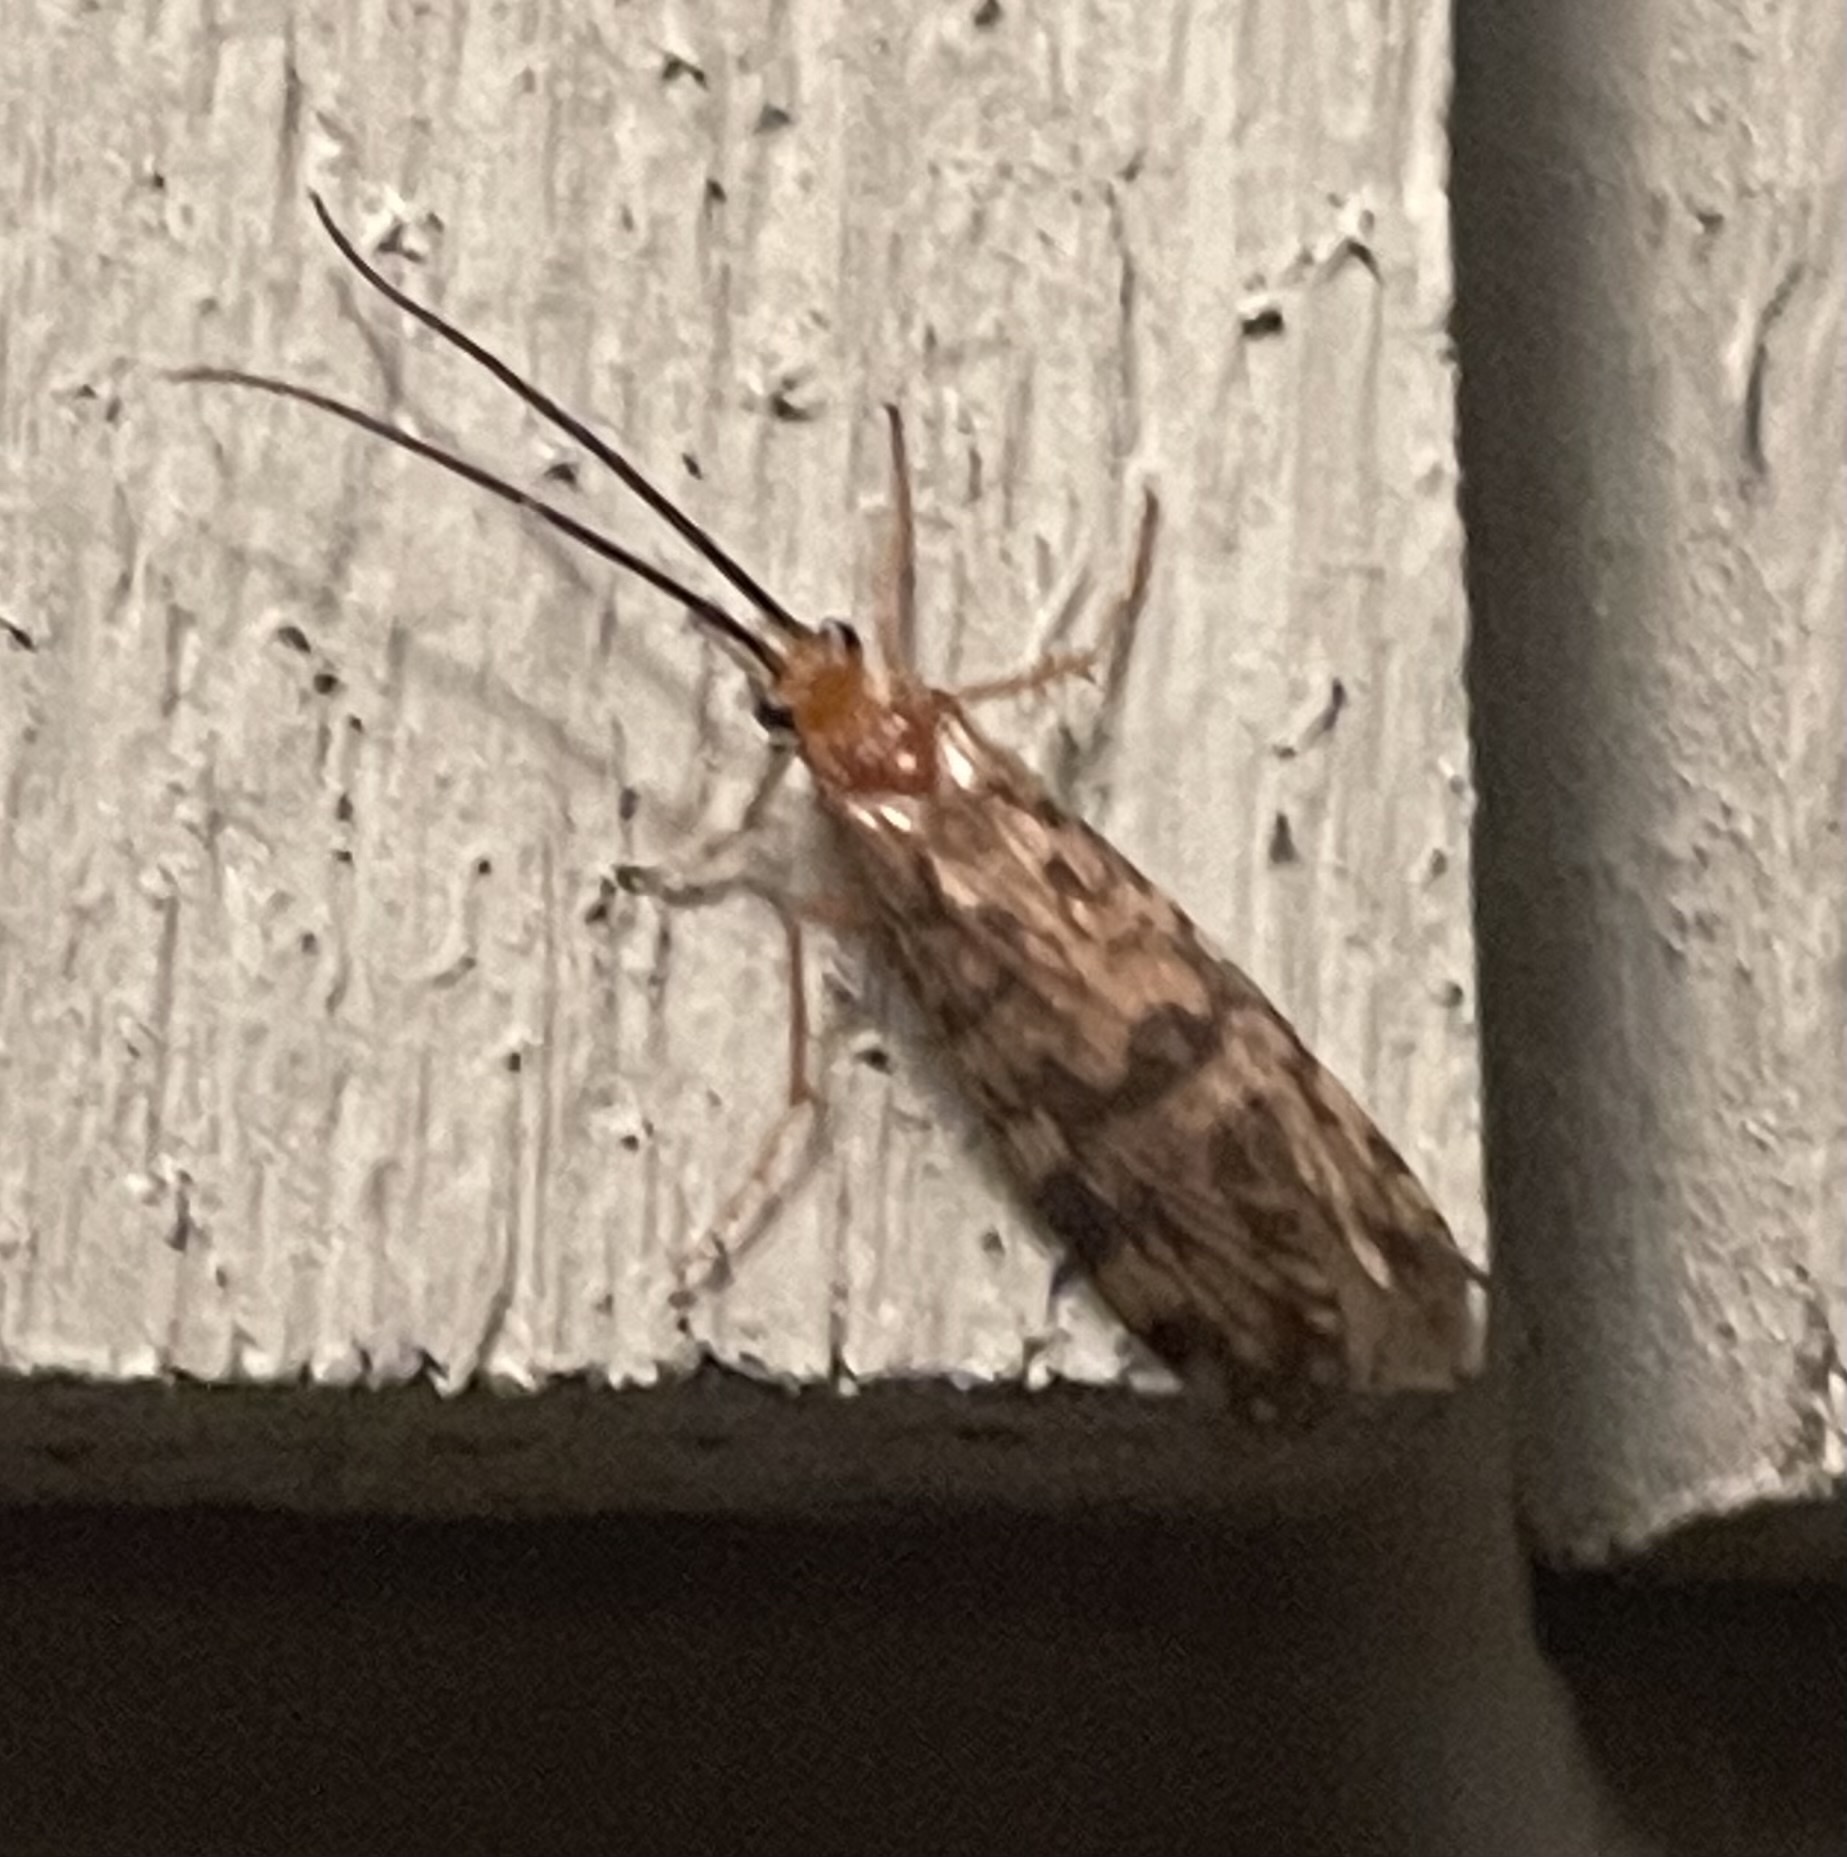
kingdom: Animalia
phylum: Arthropoda
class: Insecta
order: Trichoptera
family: Phryganeidae
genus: Banksiola
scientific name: Banksiola dossuaria
